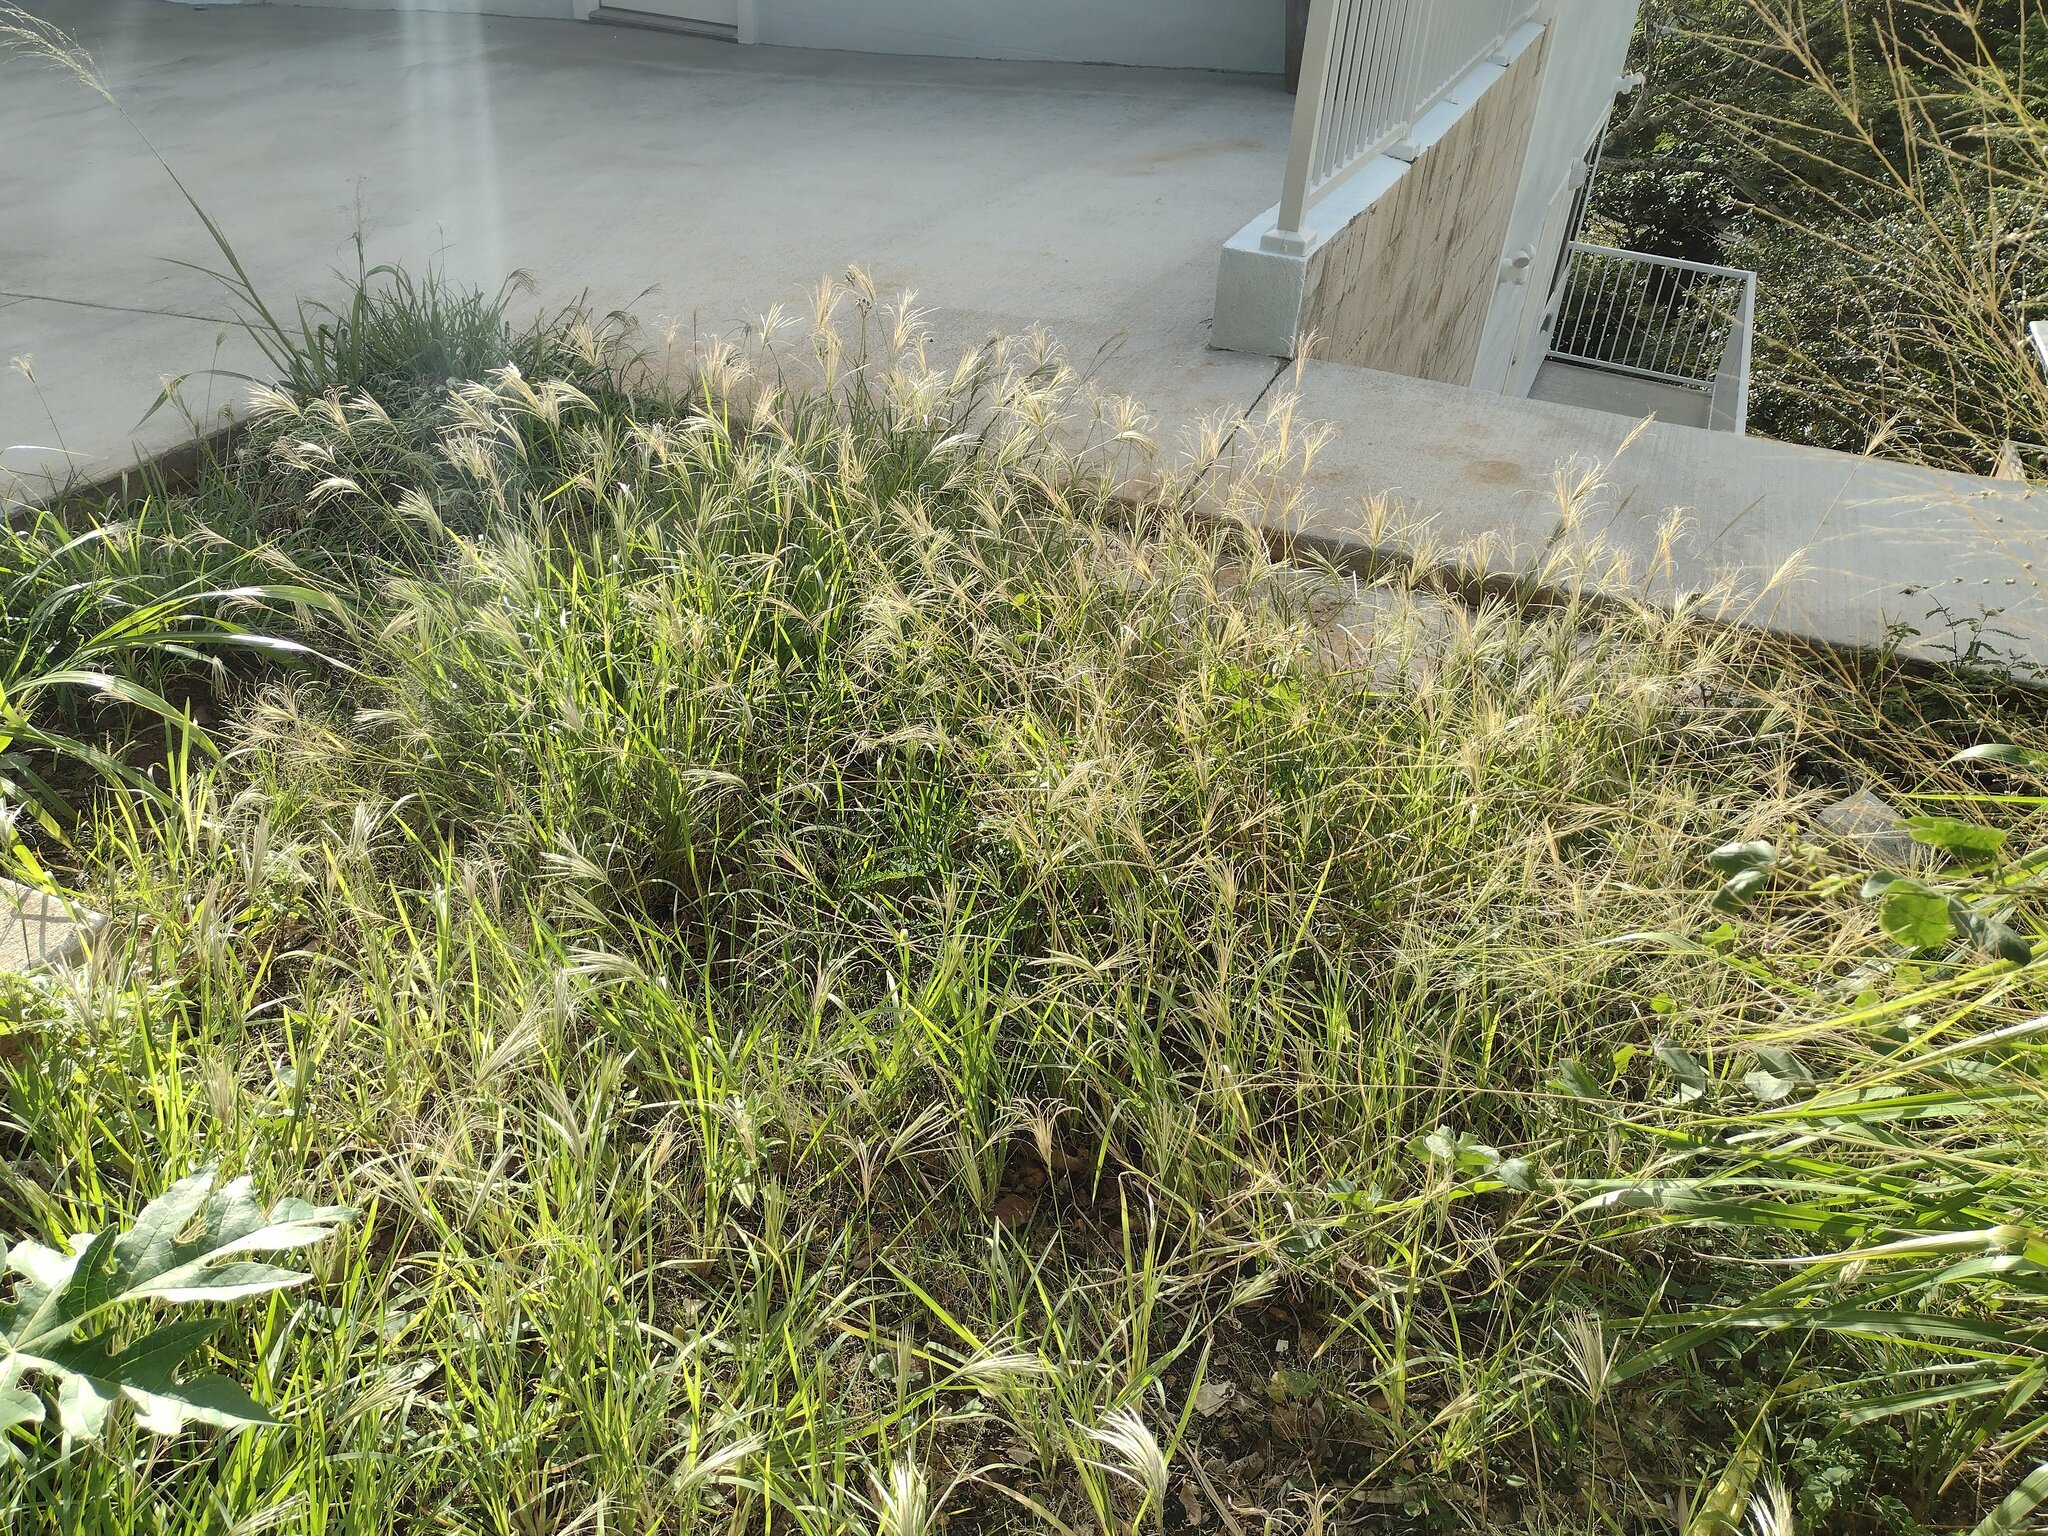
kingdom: Plantae
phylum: Tracheophyta
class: Liliopsida
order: Poales
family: Poaceae
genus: Chloris
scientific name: Chloris radiata
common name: Radiate fingergrass
